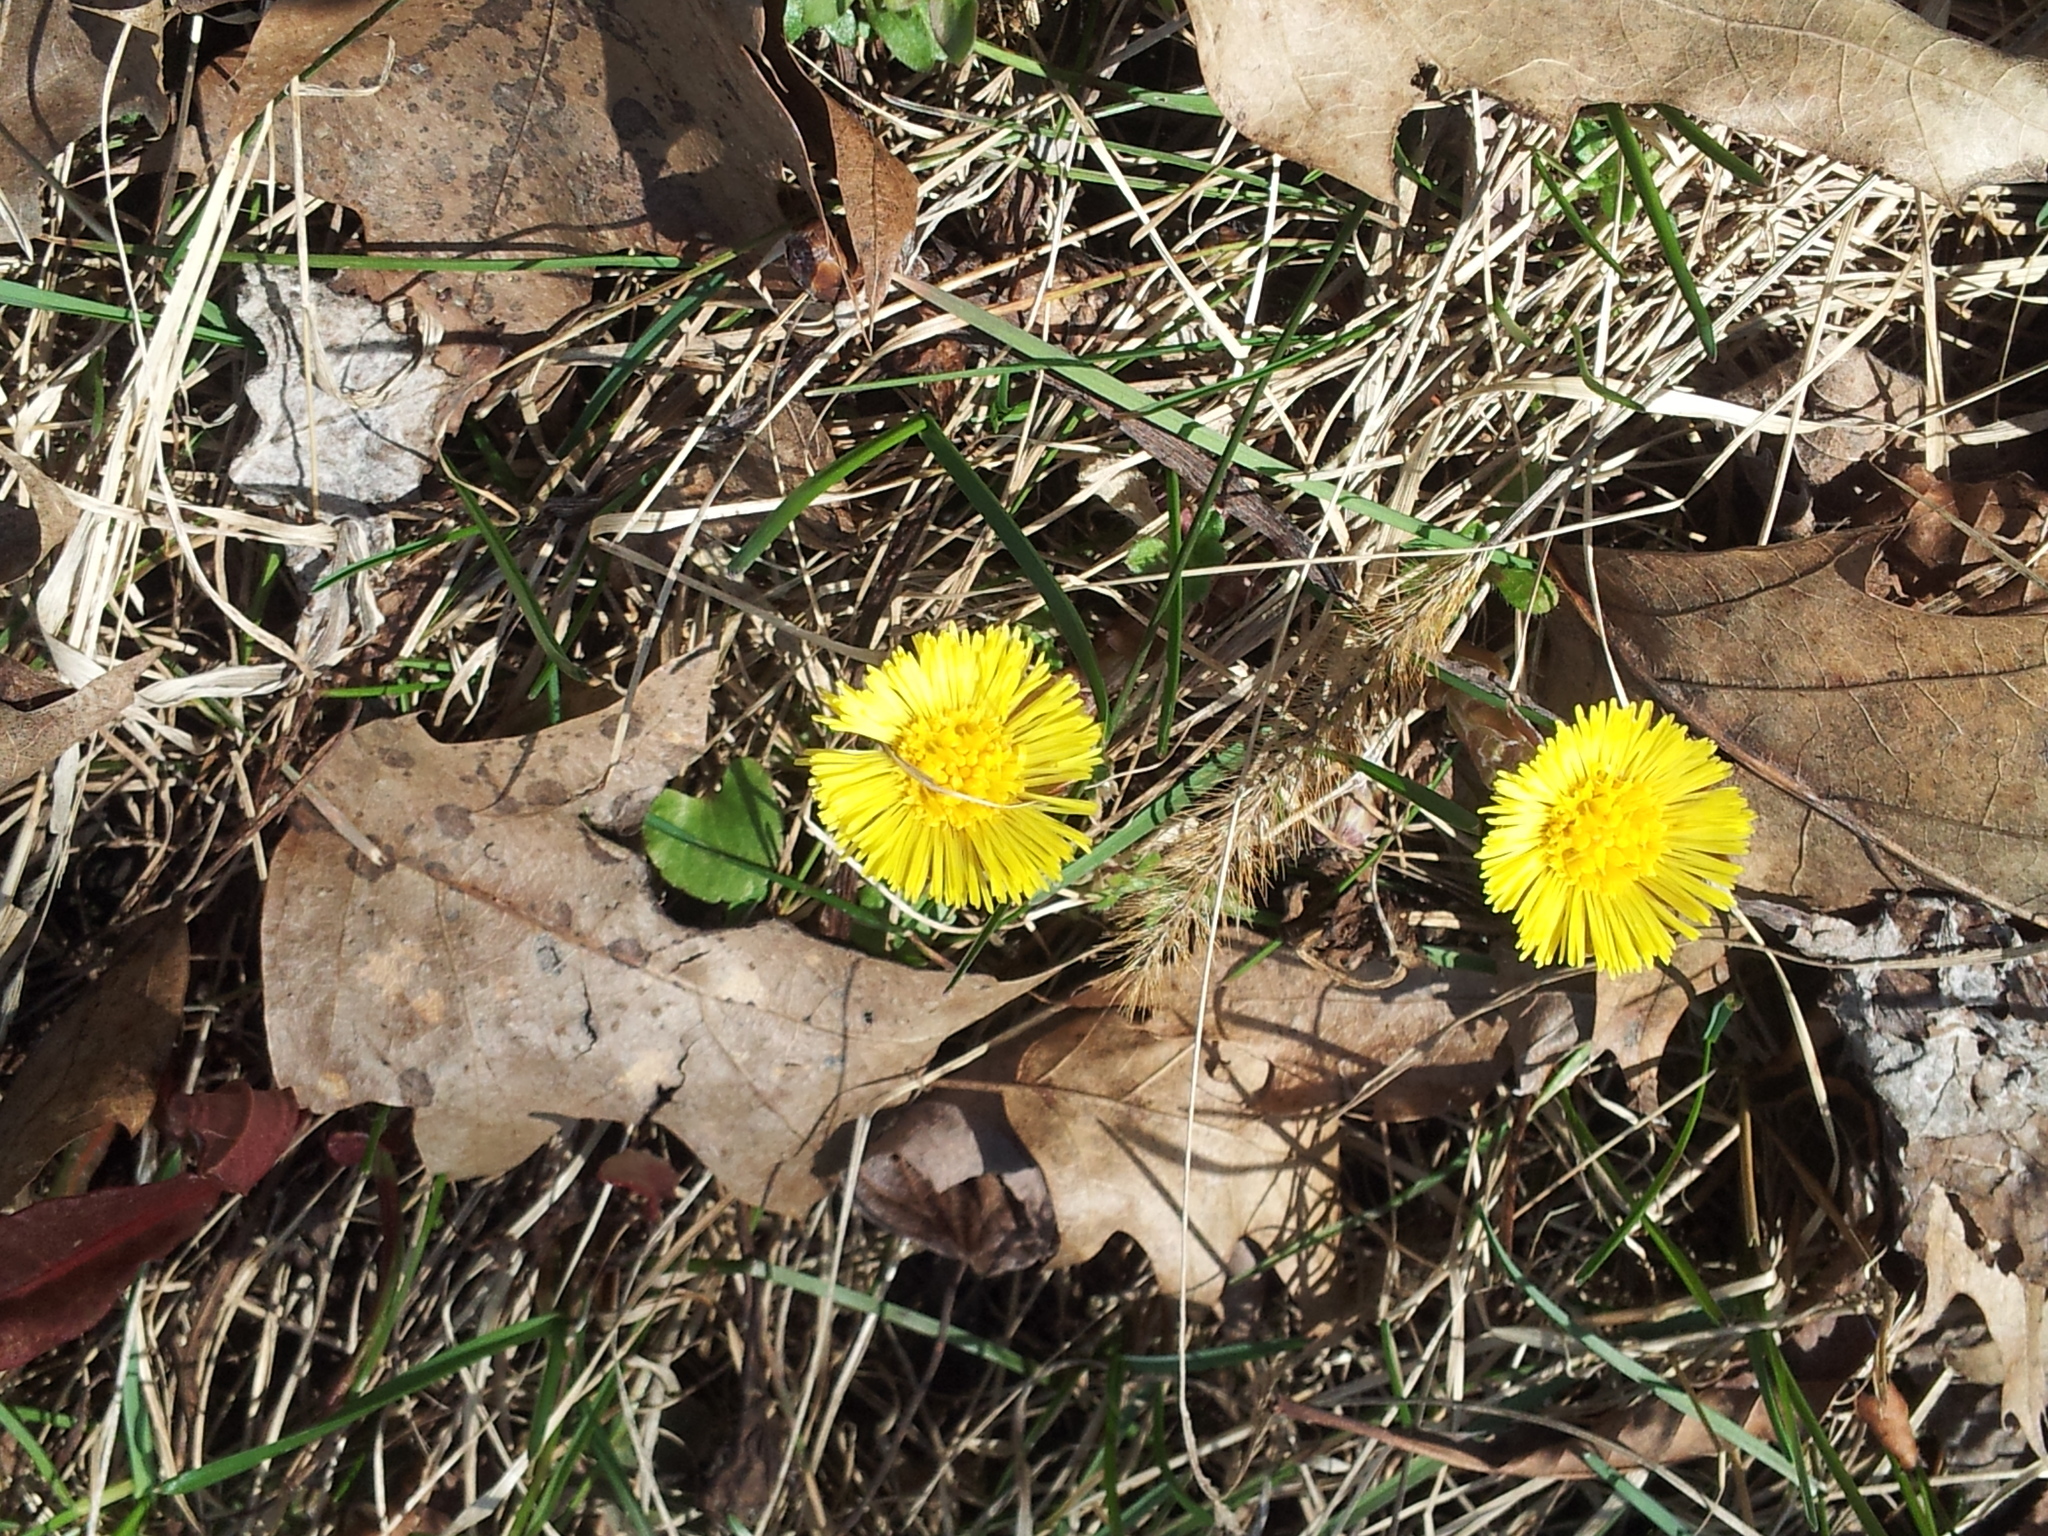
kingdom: Plantae
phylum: Tracheophyta
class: Magnoliopsida
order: Asterales
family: Asteraceae
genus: Tussilago
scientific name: Tussilago farfara
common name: Coltsfoot
